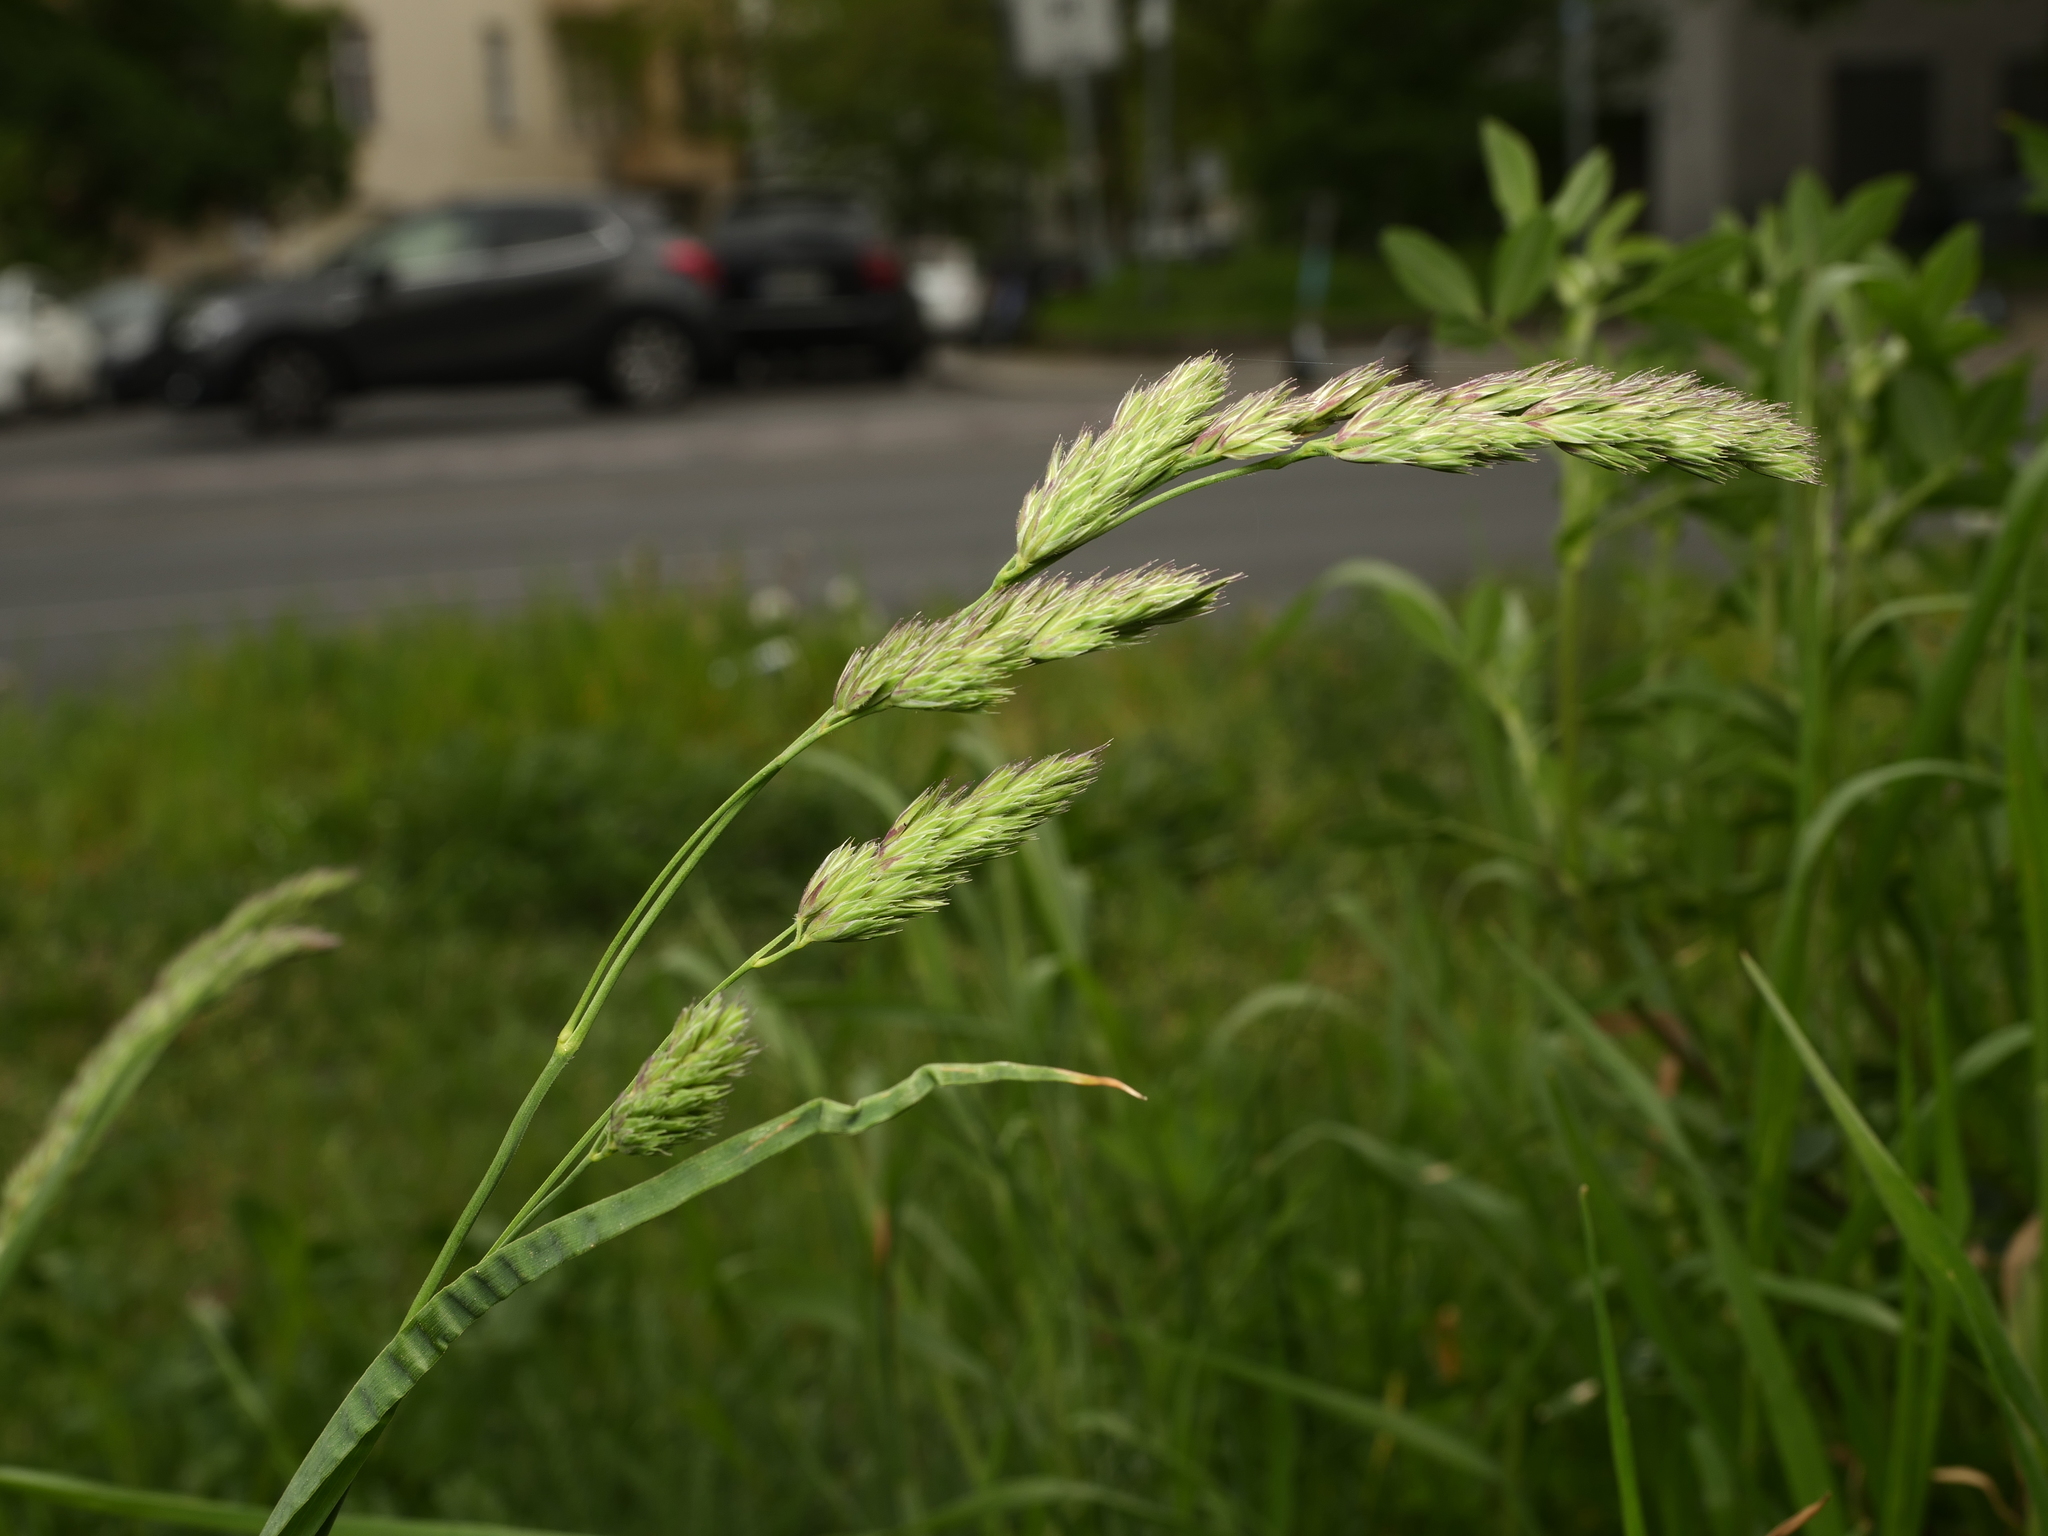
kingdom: Plantae
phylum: Tracheophyta
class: Liliopsida
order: Poales
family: Poaceae
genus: Dactylis
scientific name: Dactylis glomerata
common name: Orchardgrass
